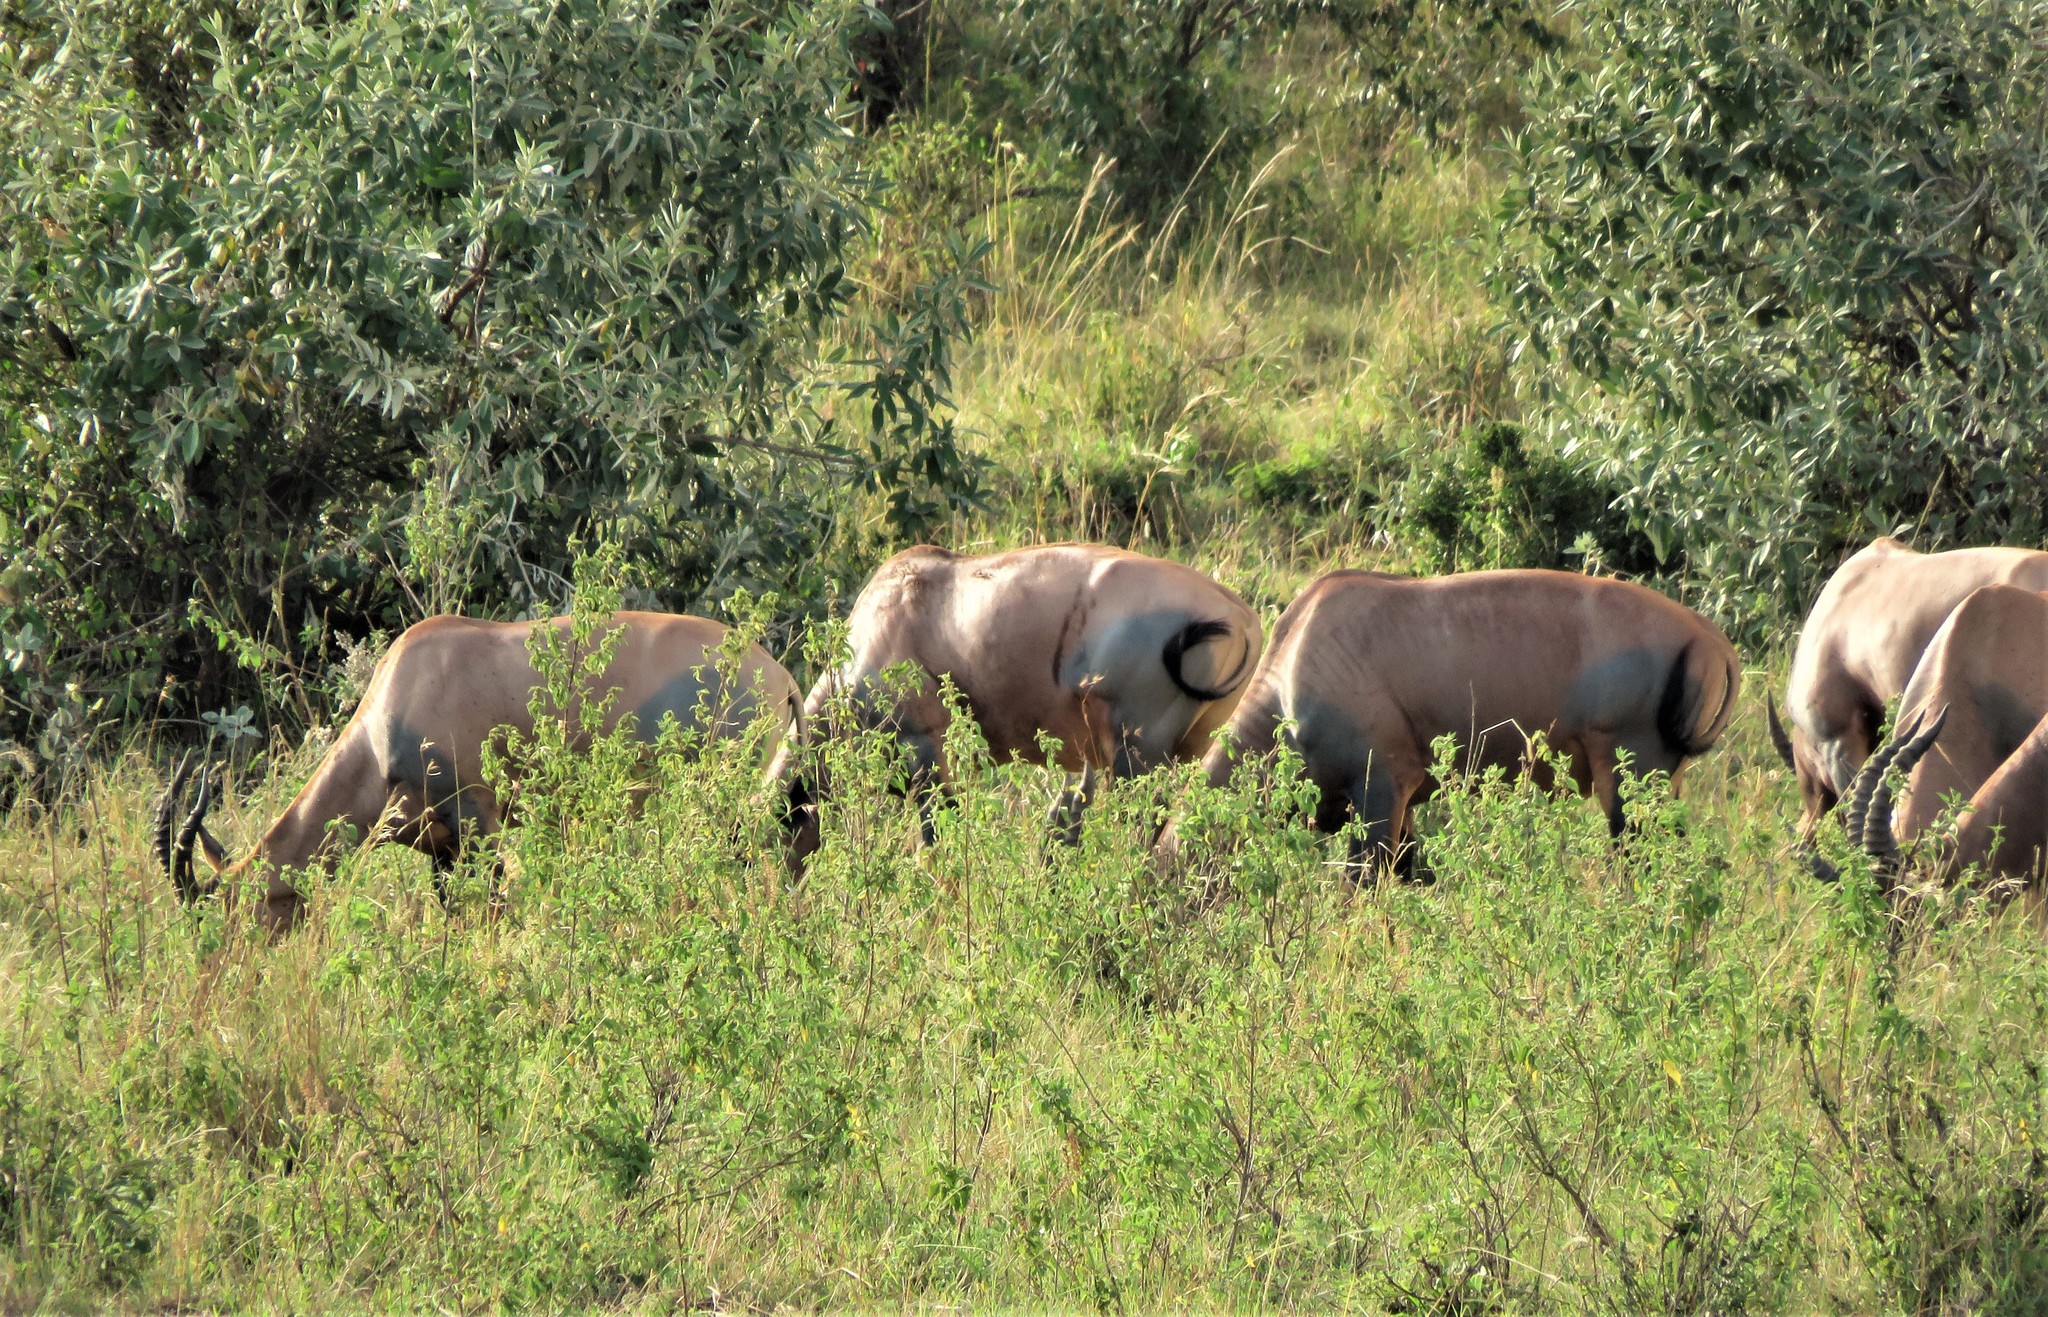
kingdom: Animalia
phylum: Chordata
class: Mammalia
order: Artiodactyla
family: Bovidae
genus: Damaliscus
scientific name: Damaliscus korrigum
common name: Topi
